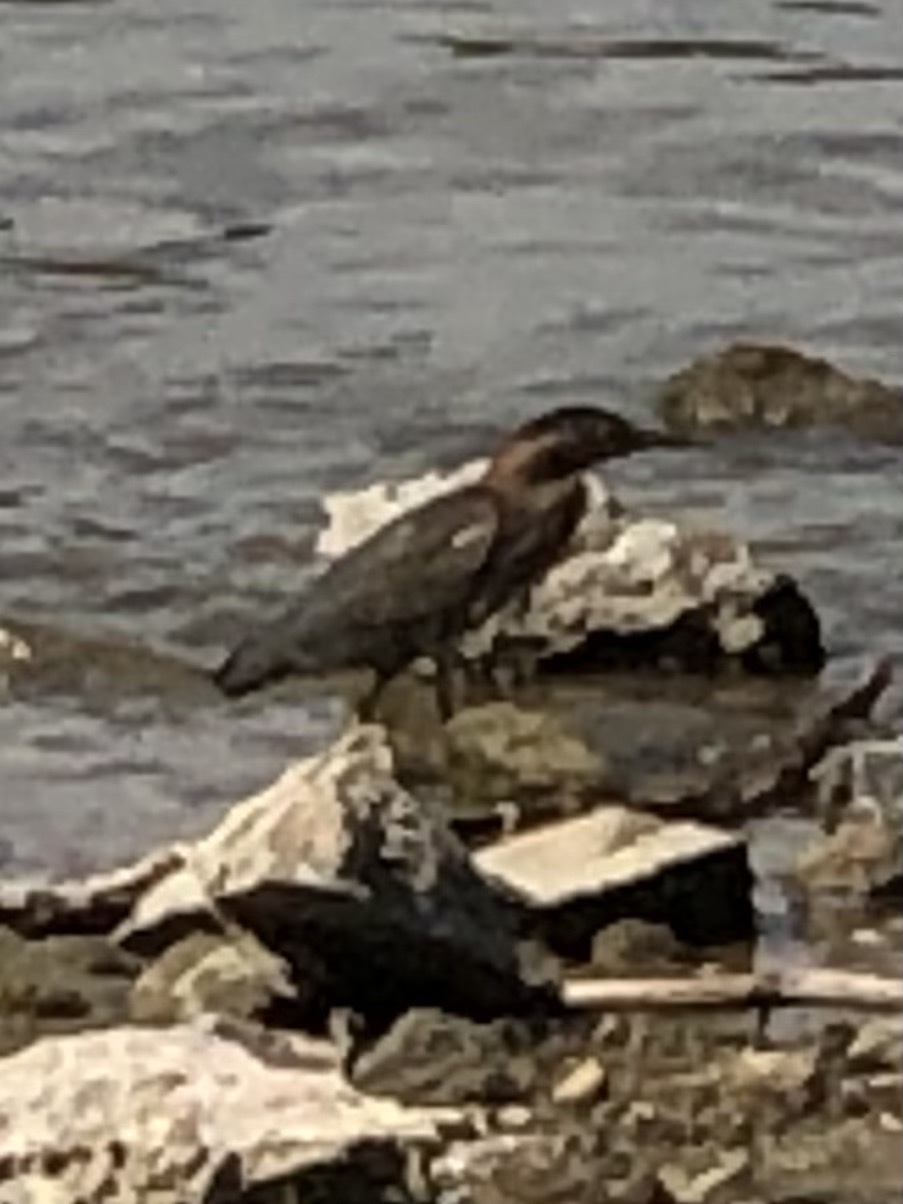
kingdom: Animalia
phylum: Chordata
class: Aves
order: Pelecaniformes
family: Ardeidae
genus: Butorides
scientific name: Butorides virescens
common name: Green heron
